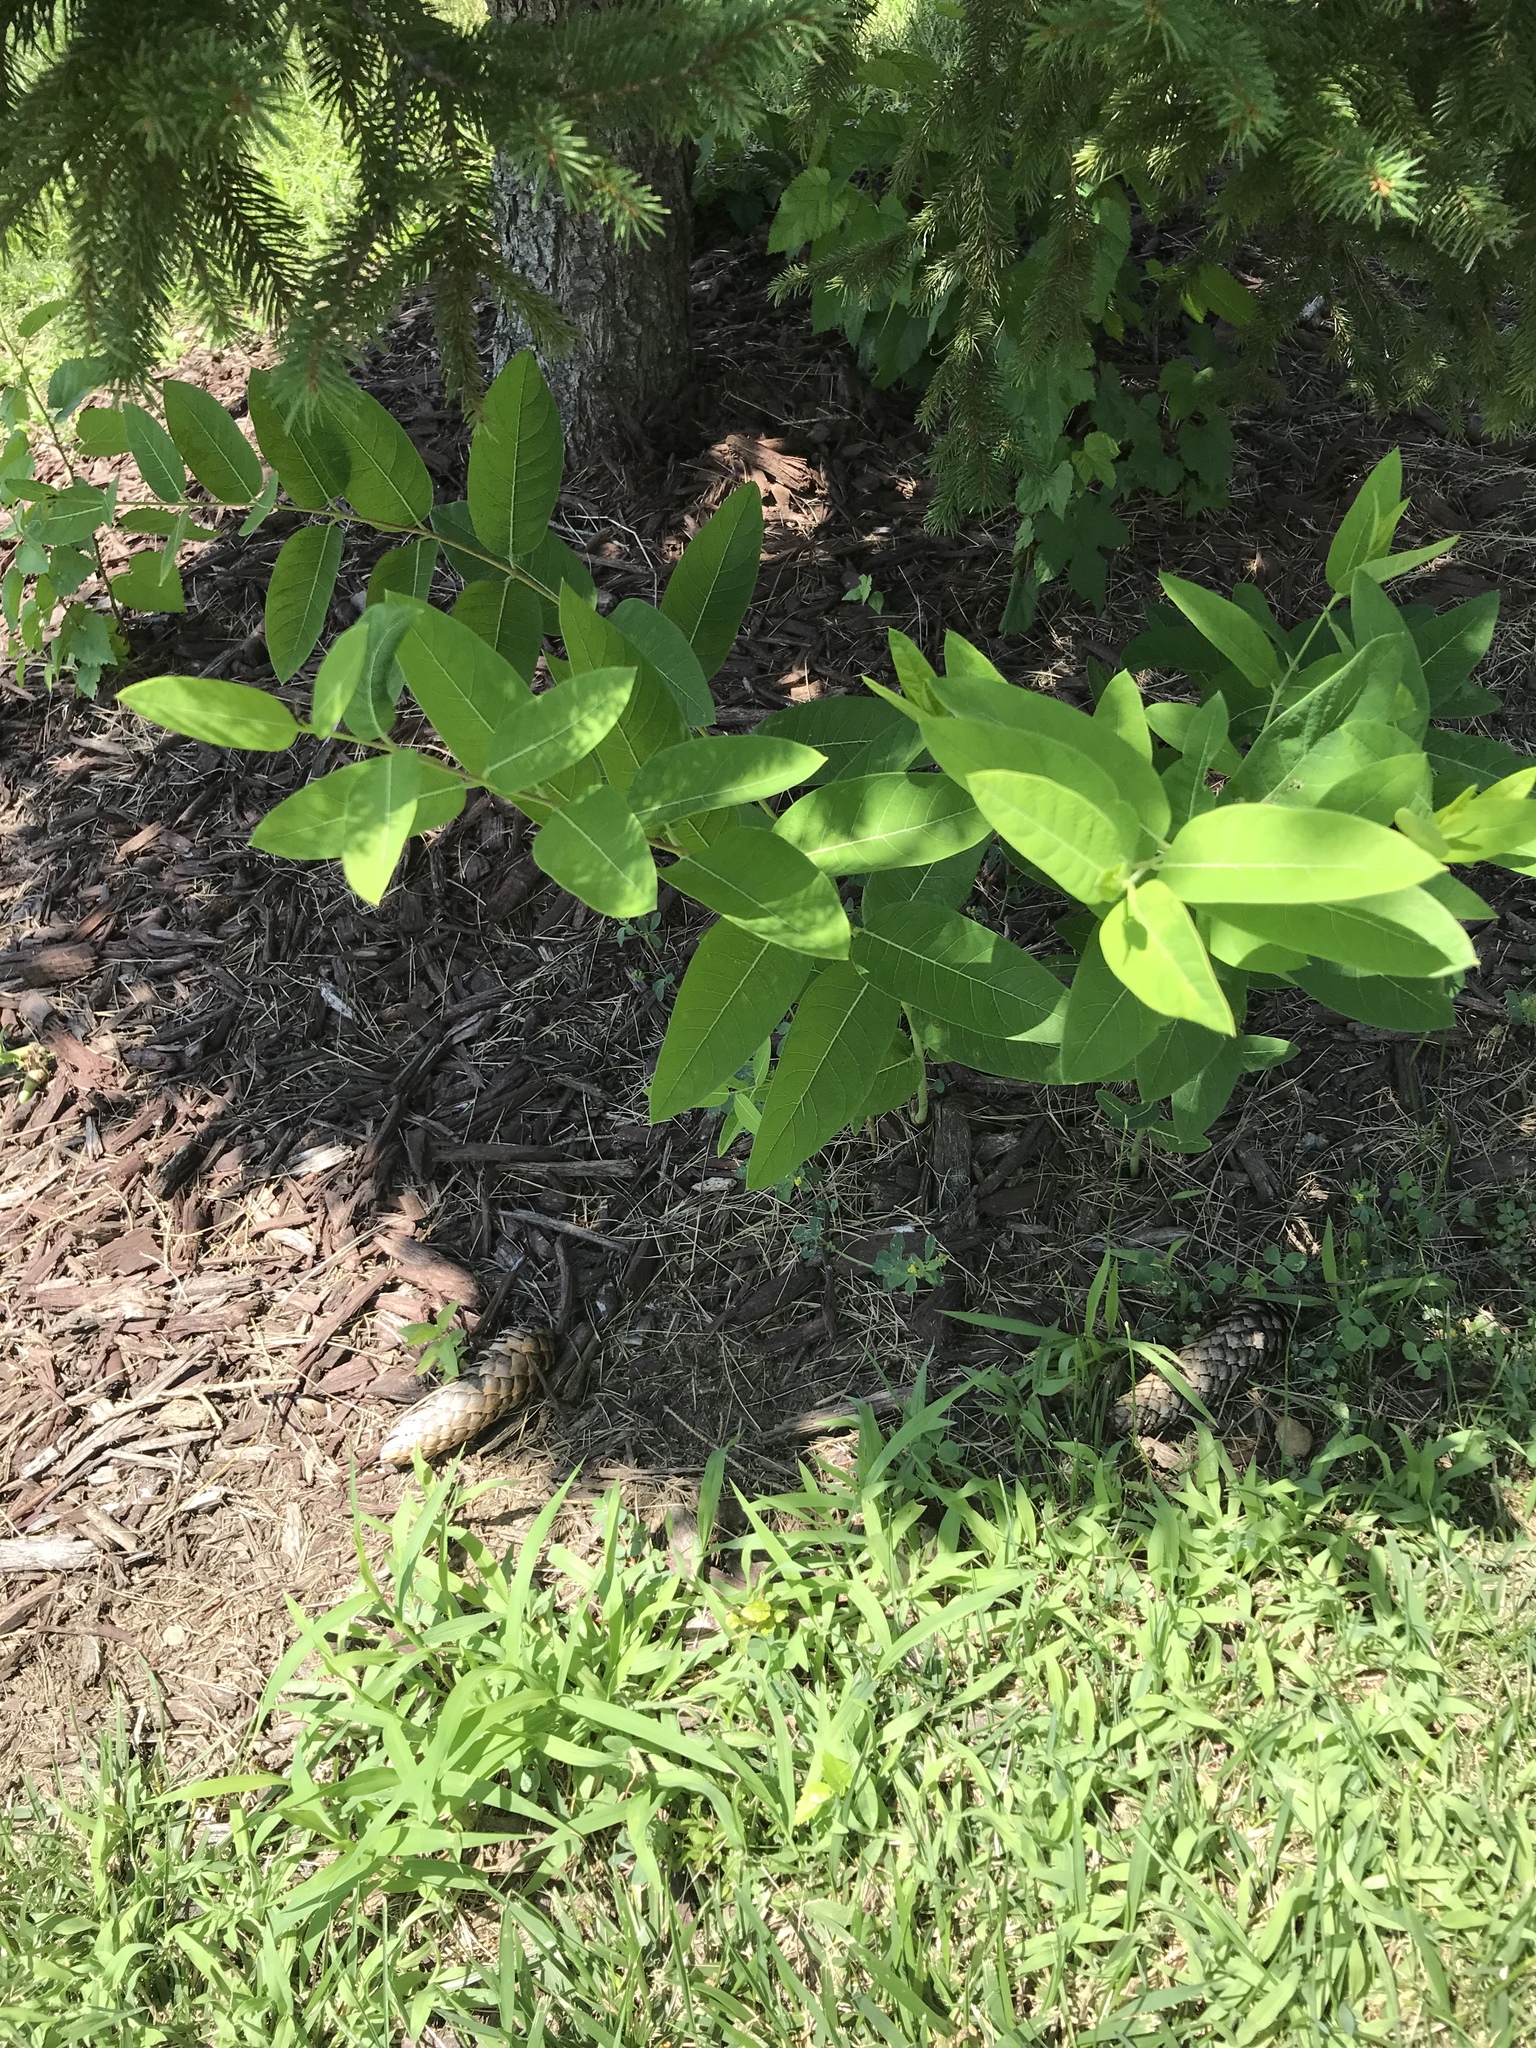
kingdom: Plantae
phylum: Tracheophyta
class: Magnoliopsida
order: Gentianales
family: Apocynaceae
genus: Apocynum
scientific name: Apocynum cannabinum
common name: Hemp dogbane
